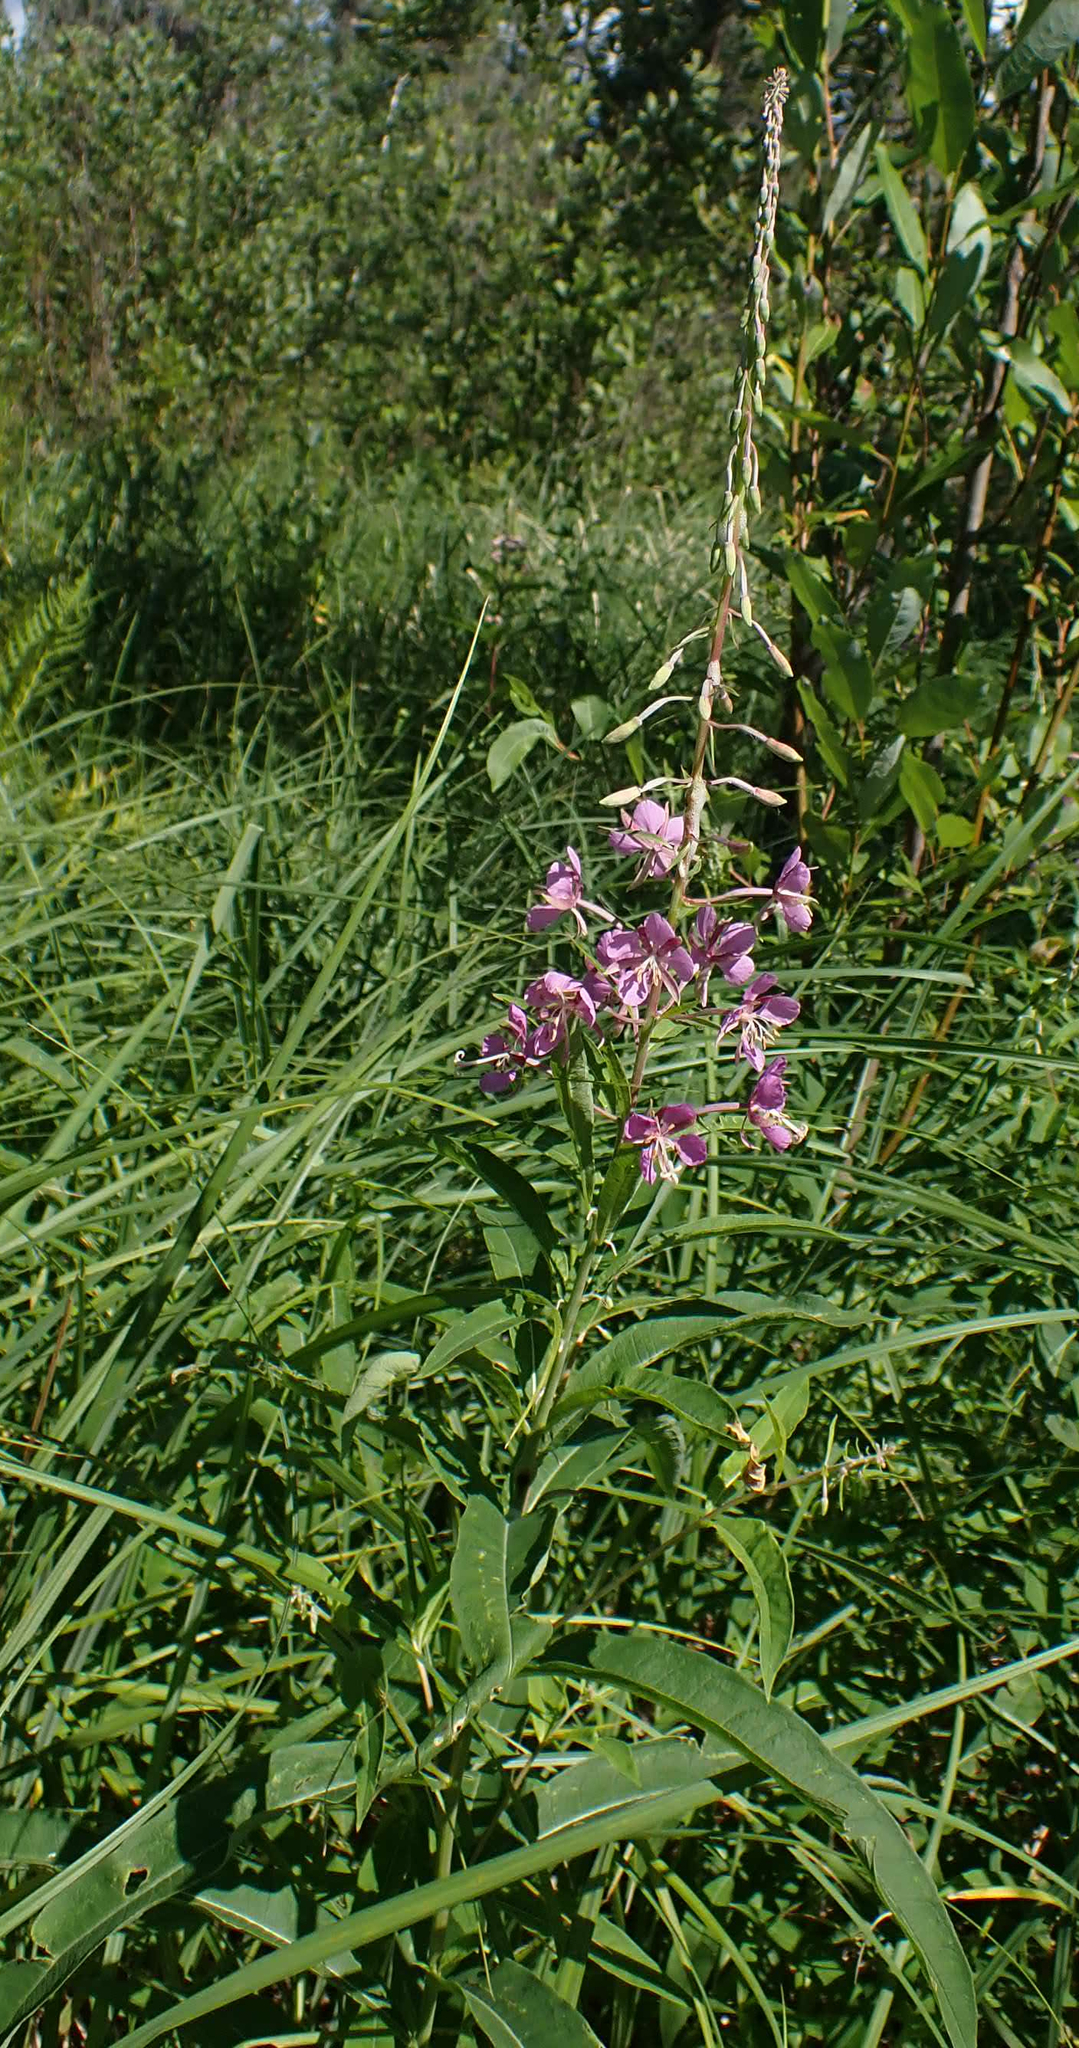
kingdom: Plantae
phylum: Tracheophyta
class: Magnoliopsida
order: Myrtales
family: Onagraceae
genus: Chamaenerion
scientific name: Chamaenerion angustifolium
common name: Fireweed
